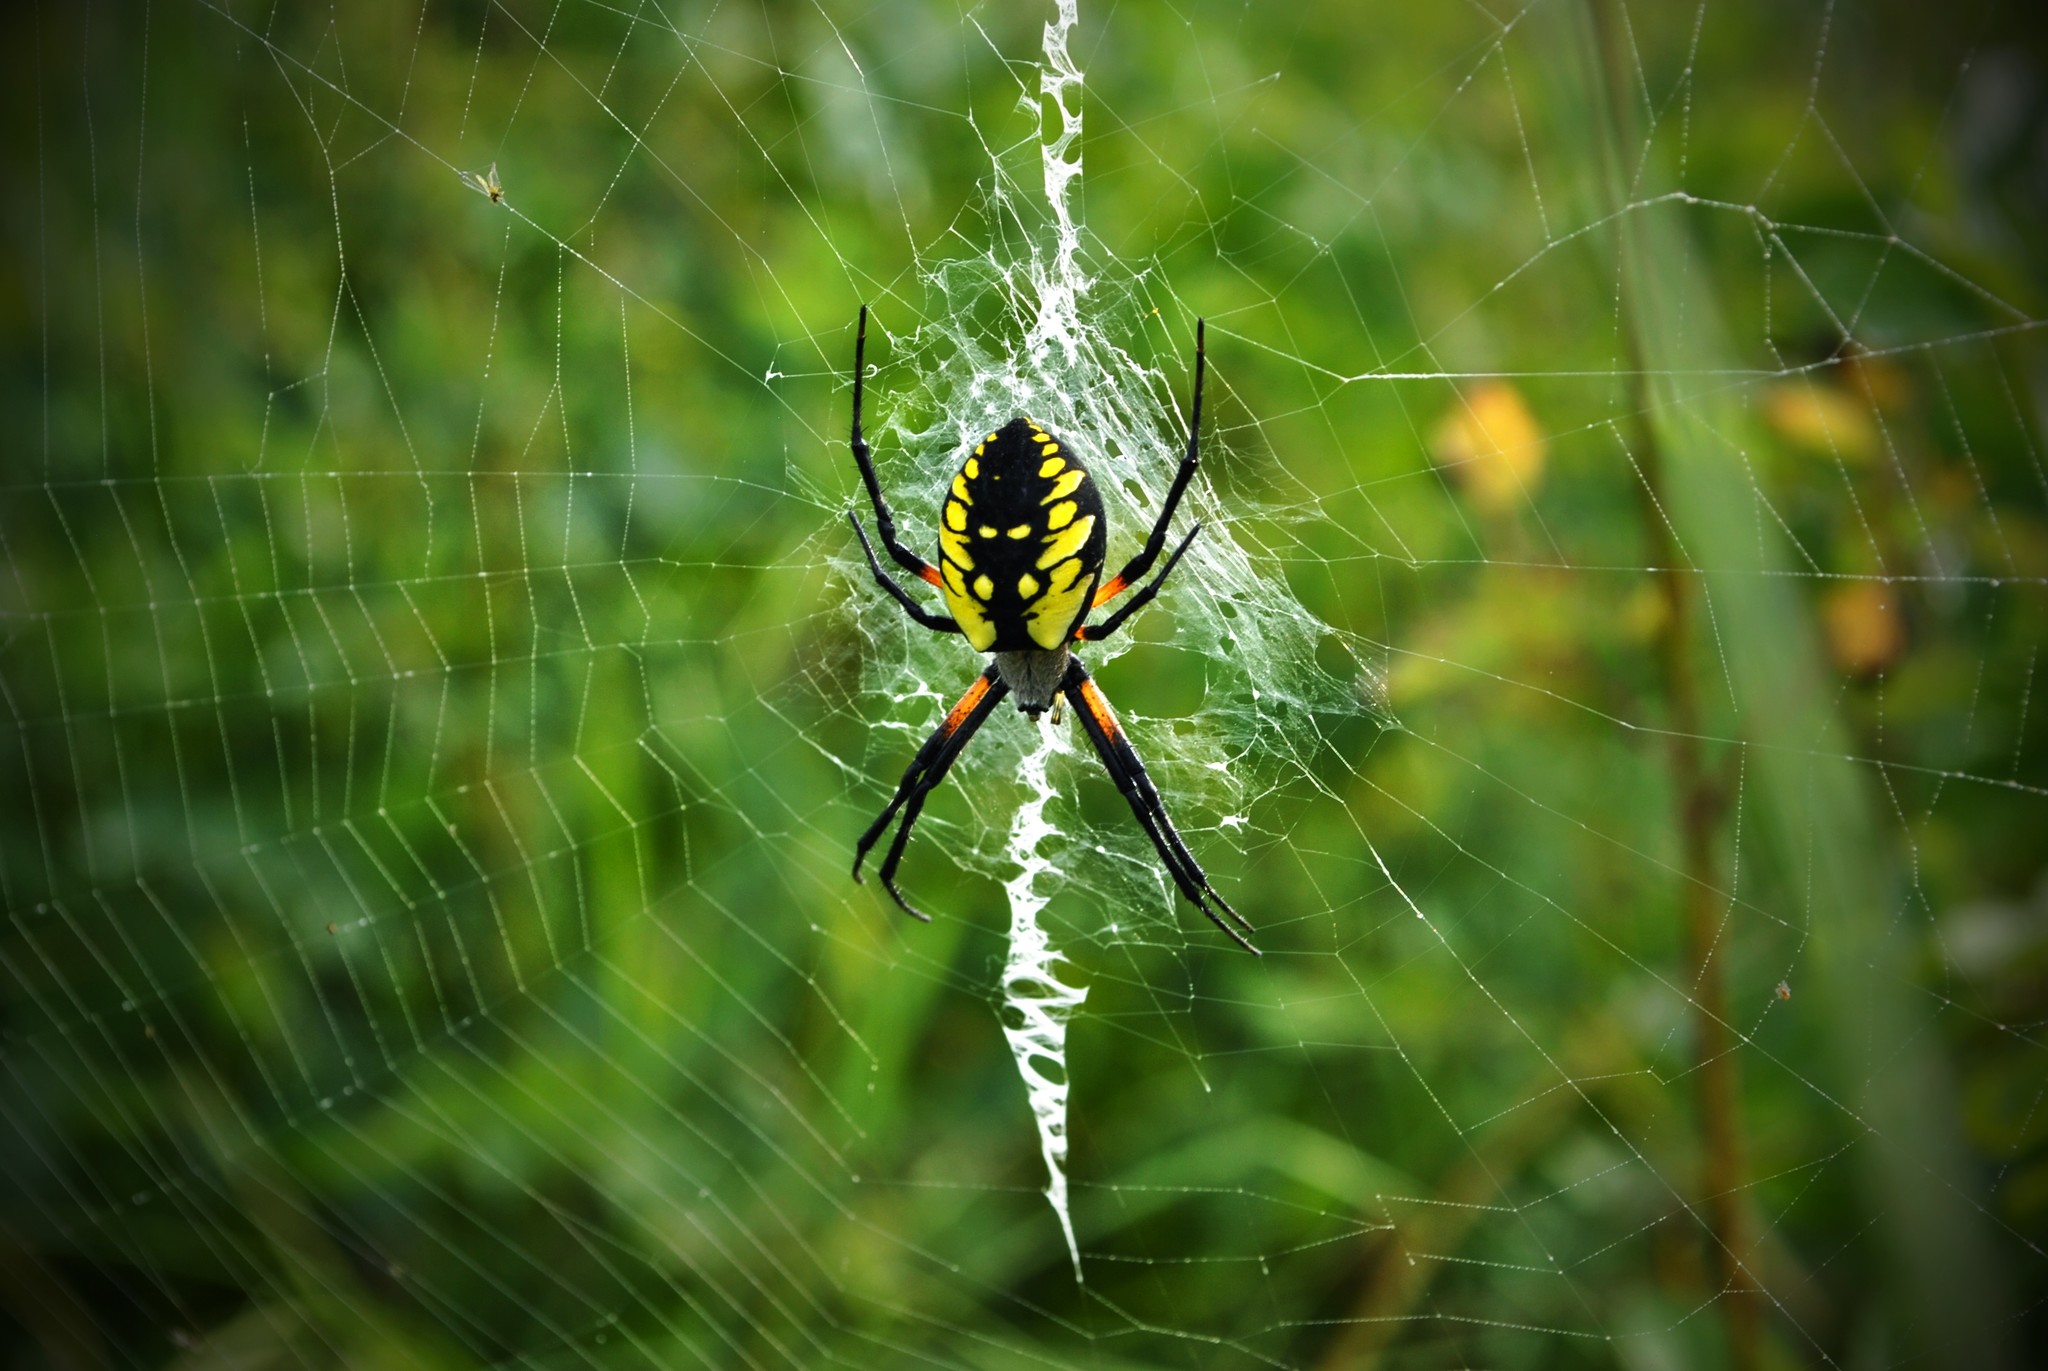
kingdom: Animalia
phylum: Arthropoda
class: Arachnida
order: Araneae
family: Araneidae
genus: Argiope
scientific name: Argiope aurantia
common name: Orb weavers
